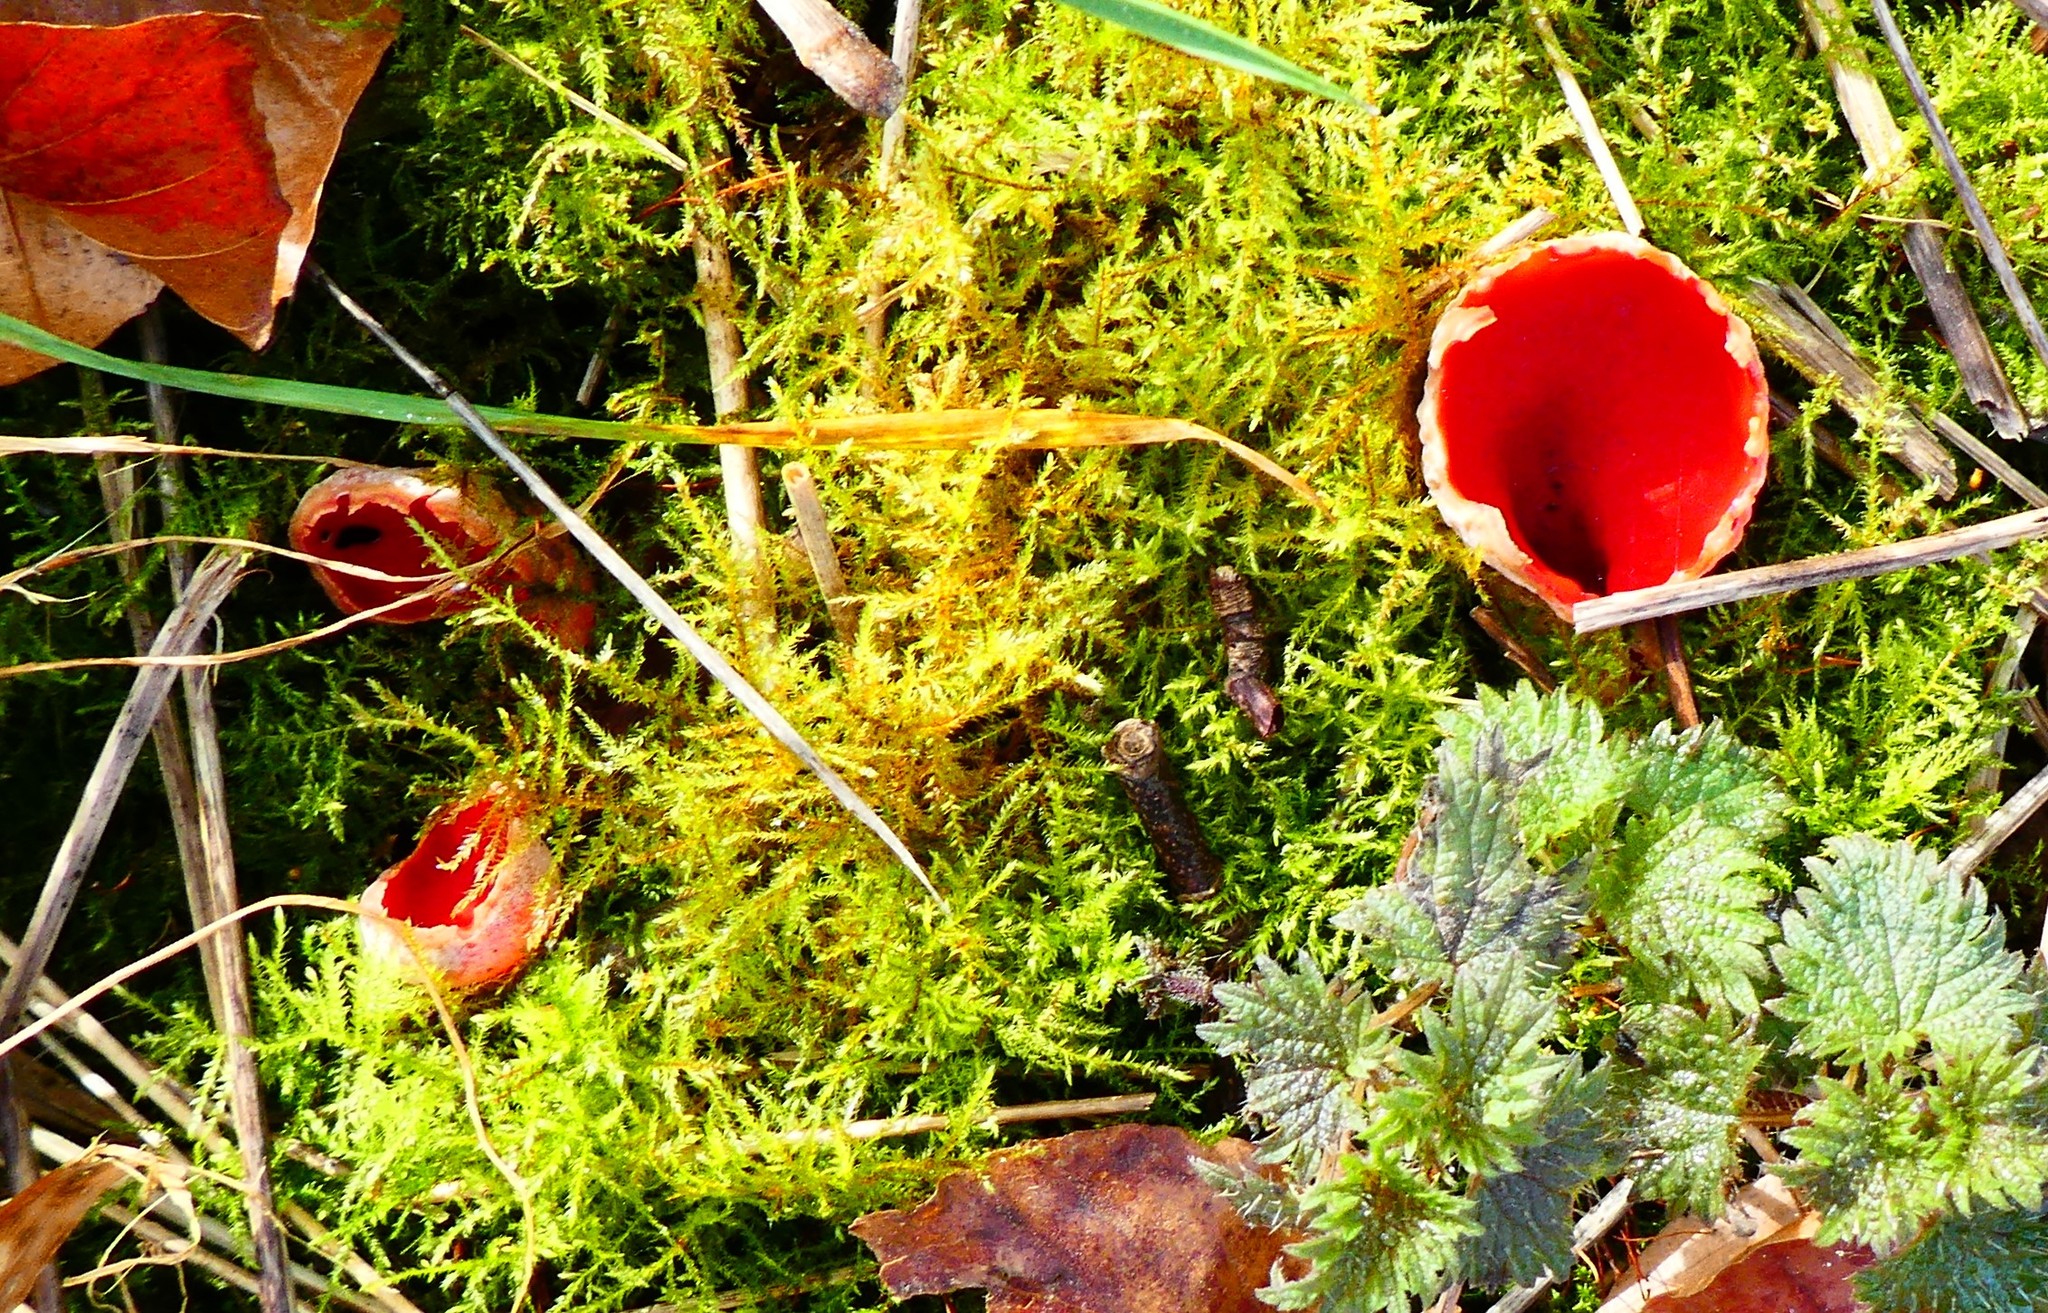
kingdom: Fungi
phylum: Ascomycota
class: Pezizomycetes
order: Pezizales
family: Sarcoscyphaceae
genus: Sarcoscypha
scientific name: Sarcoscypha
